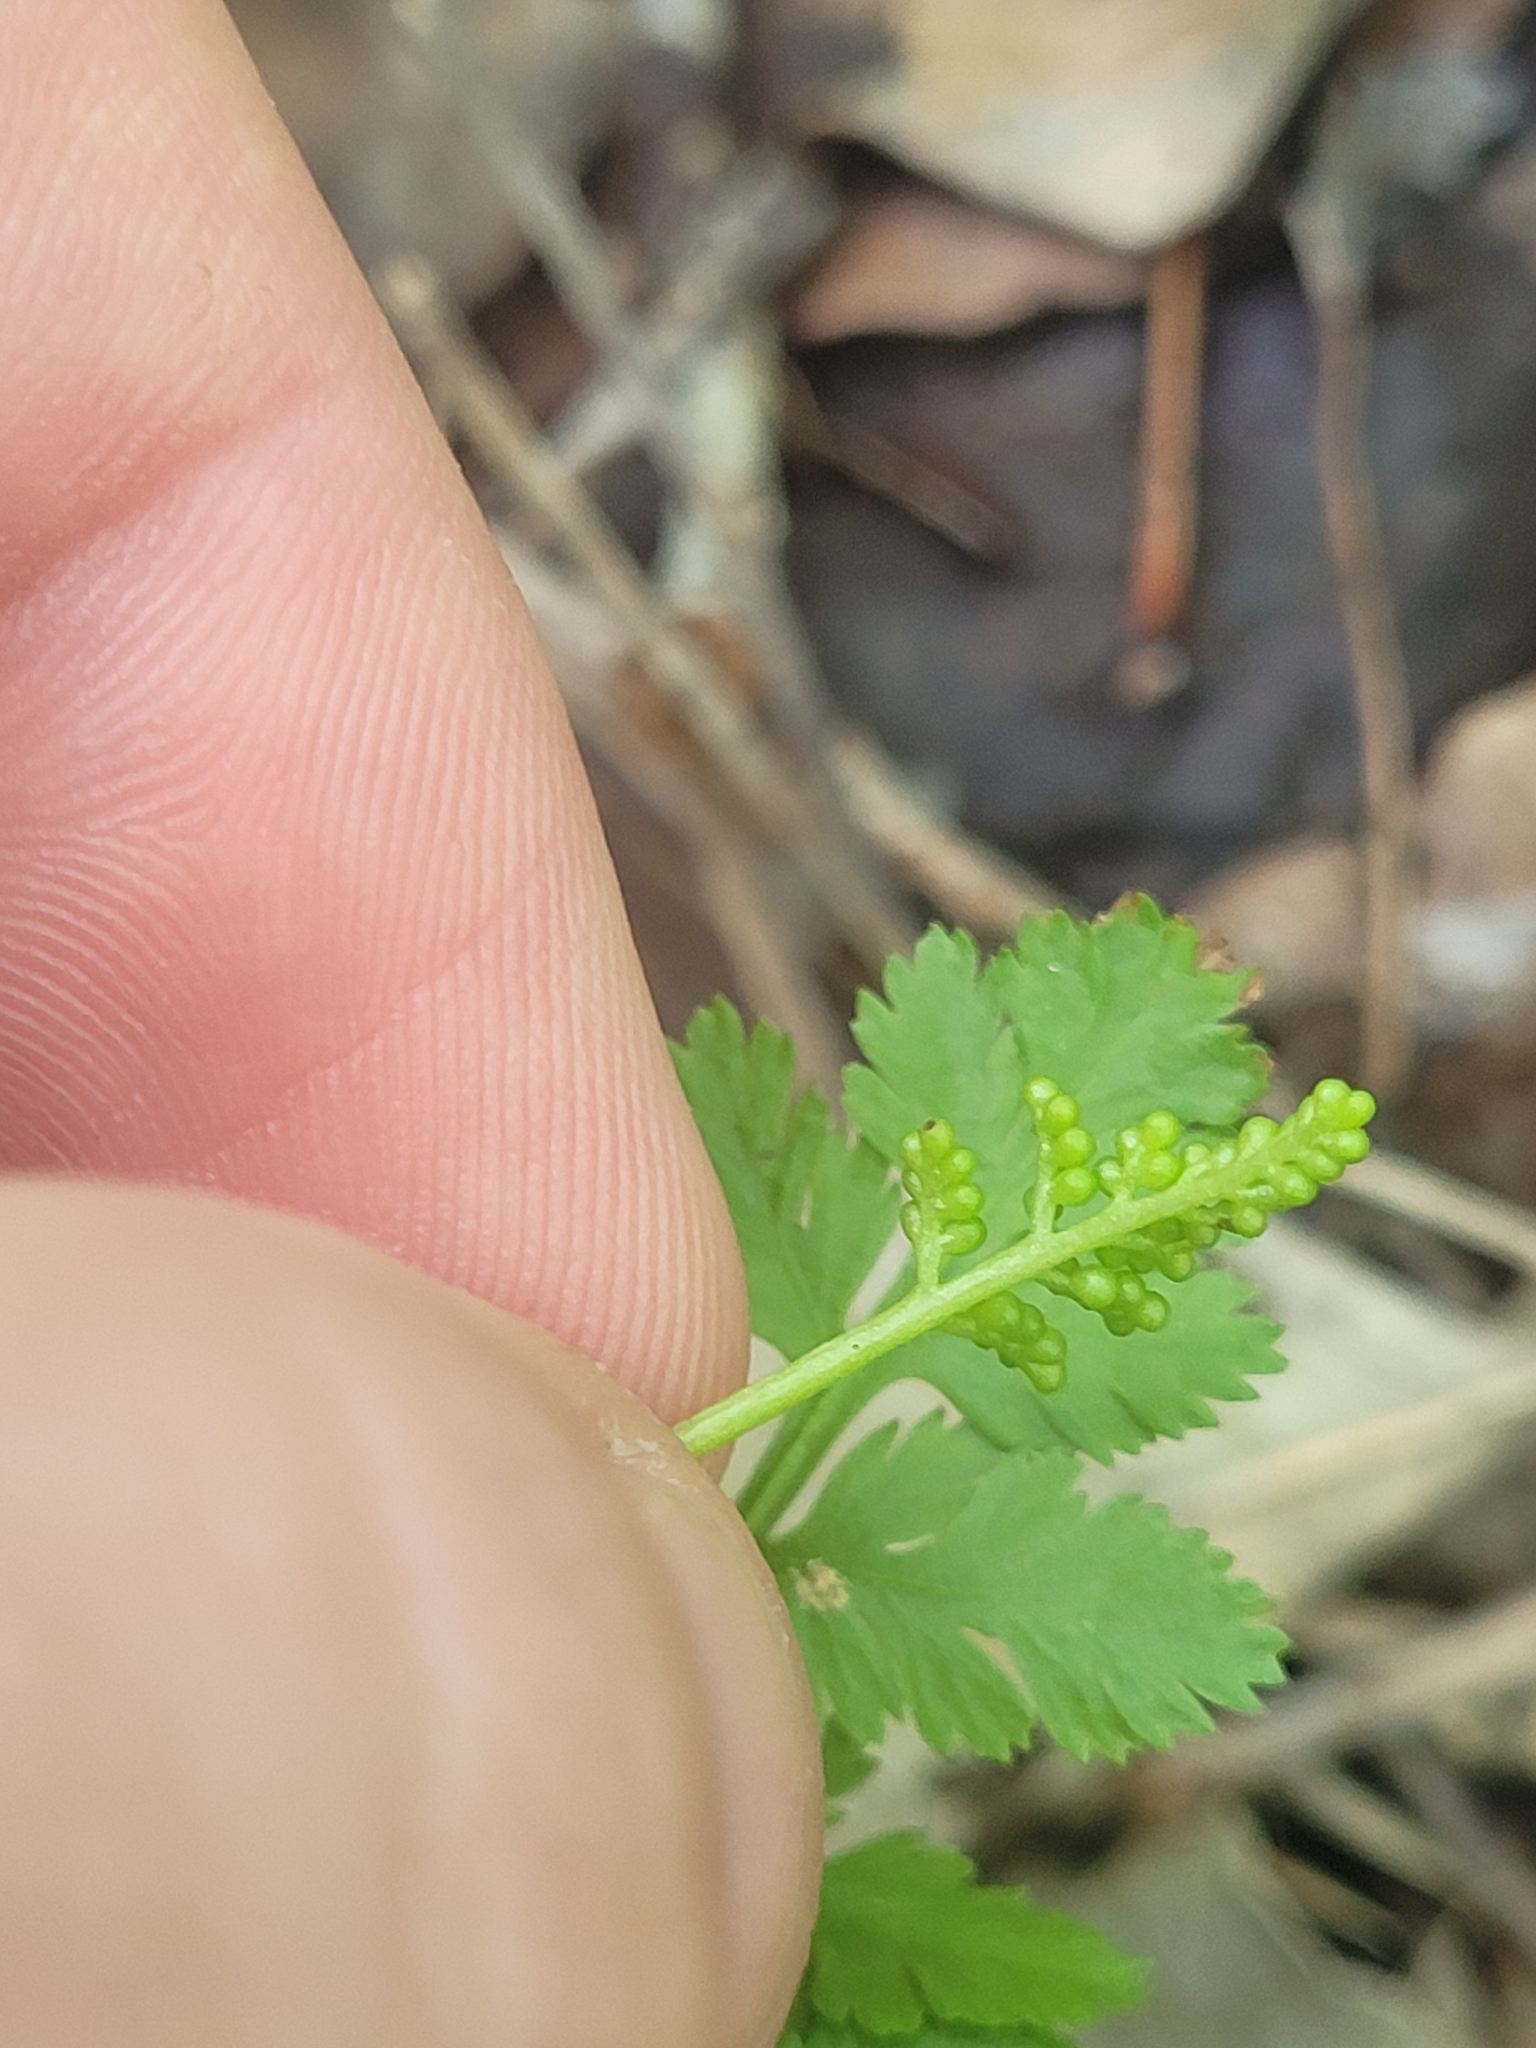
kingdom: Plantae
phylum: Tracheophyta
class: Polypodiopsida
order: Ophioglossales
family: Ophioglossaceae
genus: Botrypus
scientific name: Botrypus virginianus
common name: Common grapefern
